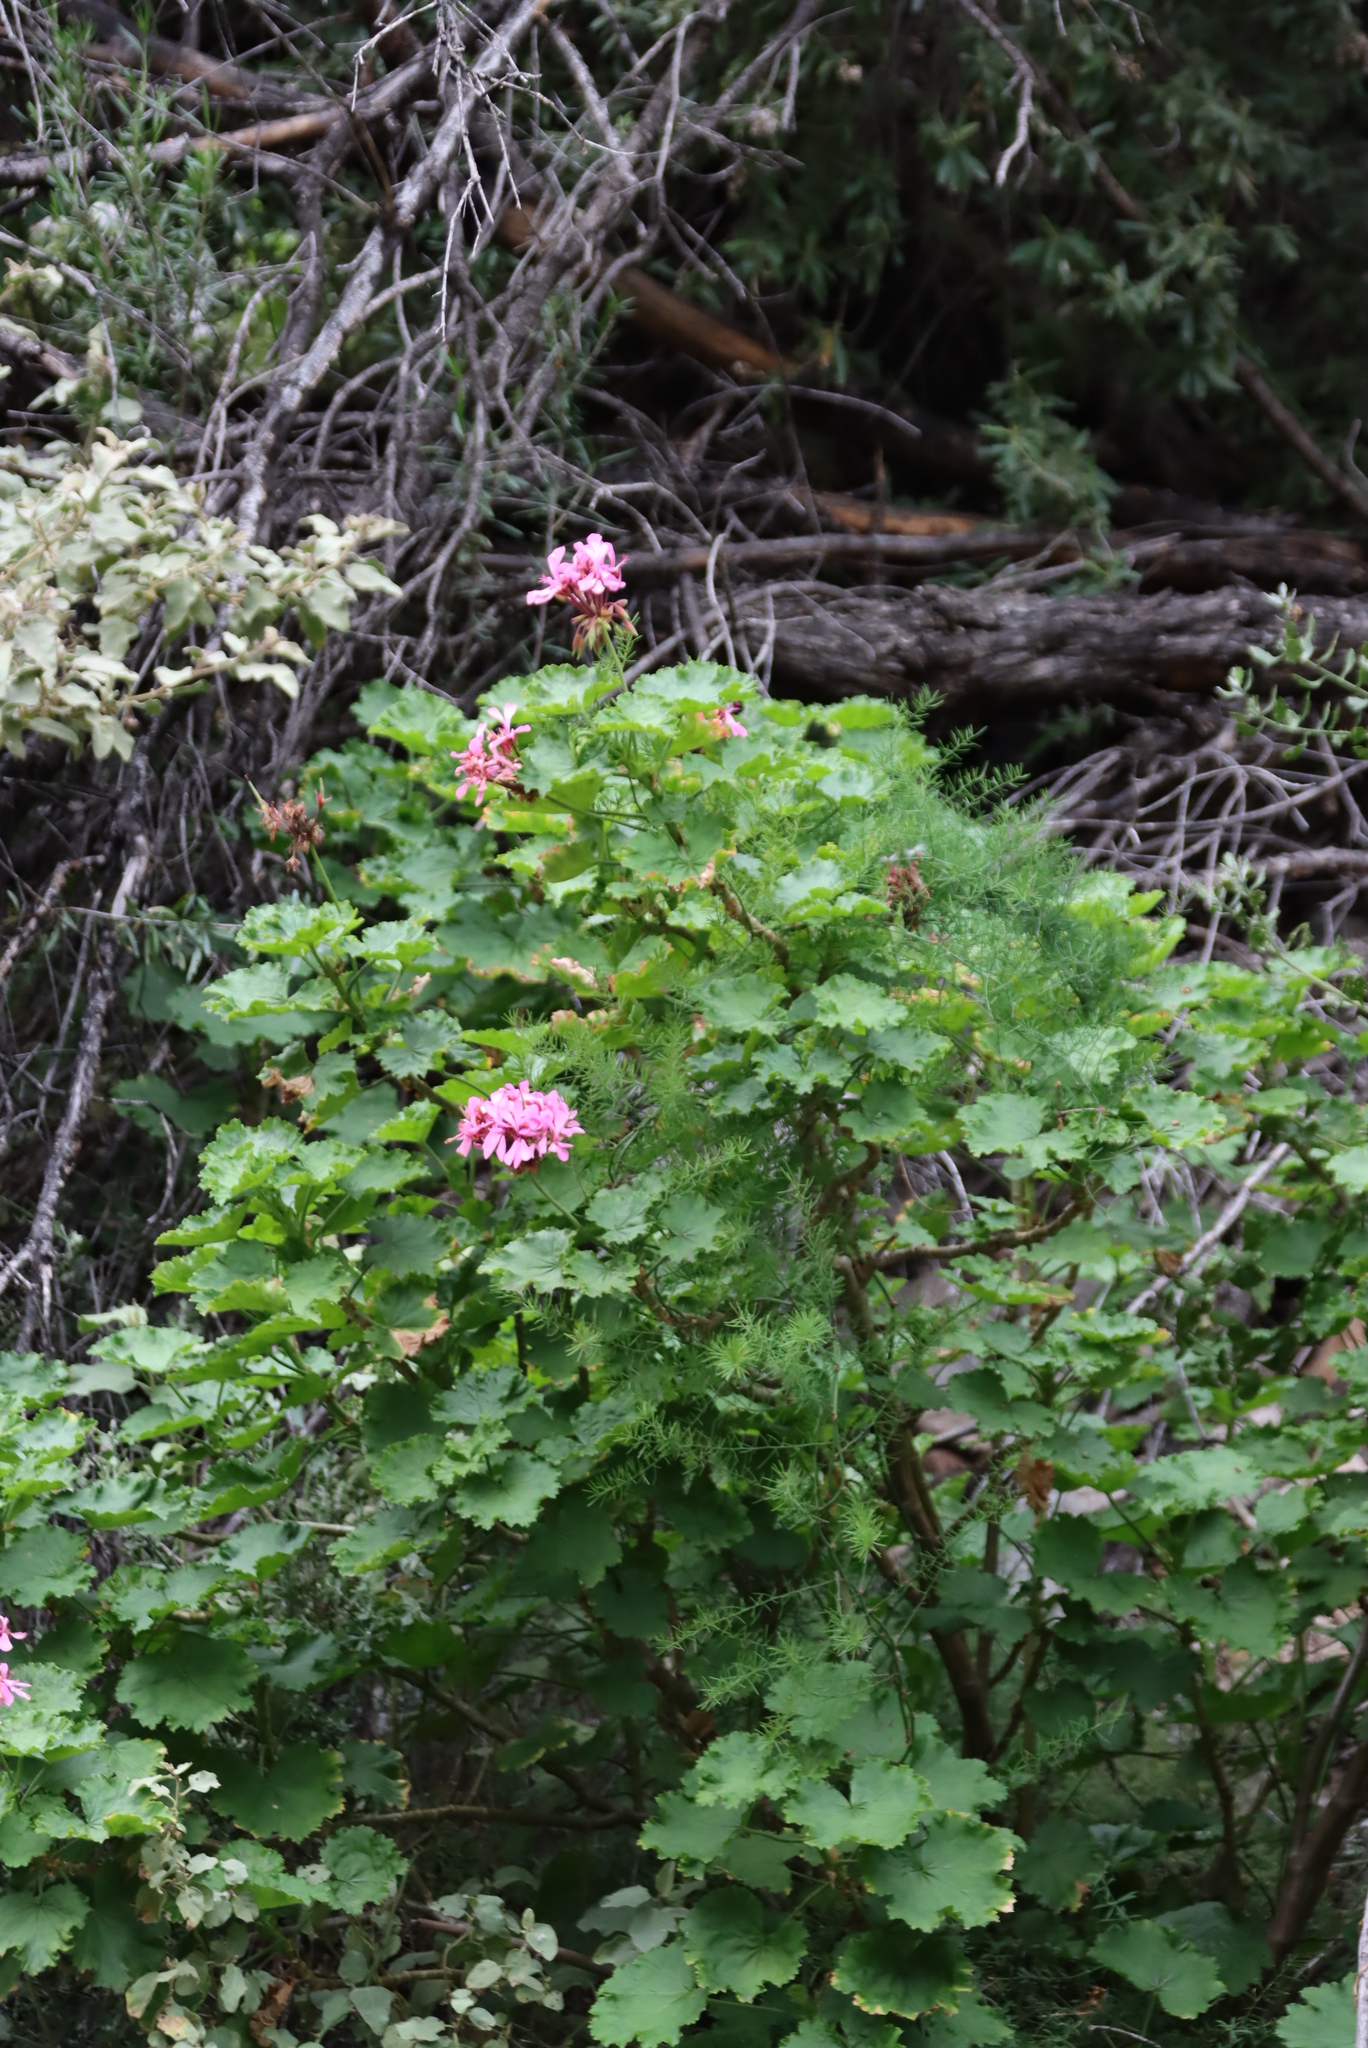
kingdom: Plantae
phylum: Tracheophyta
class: Magnoliopsida
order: Geraniales
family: Geraniaceae
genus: Pelargonium
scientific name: Pelargonium zonale
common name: Horseshoe geranium
